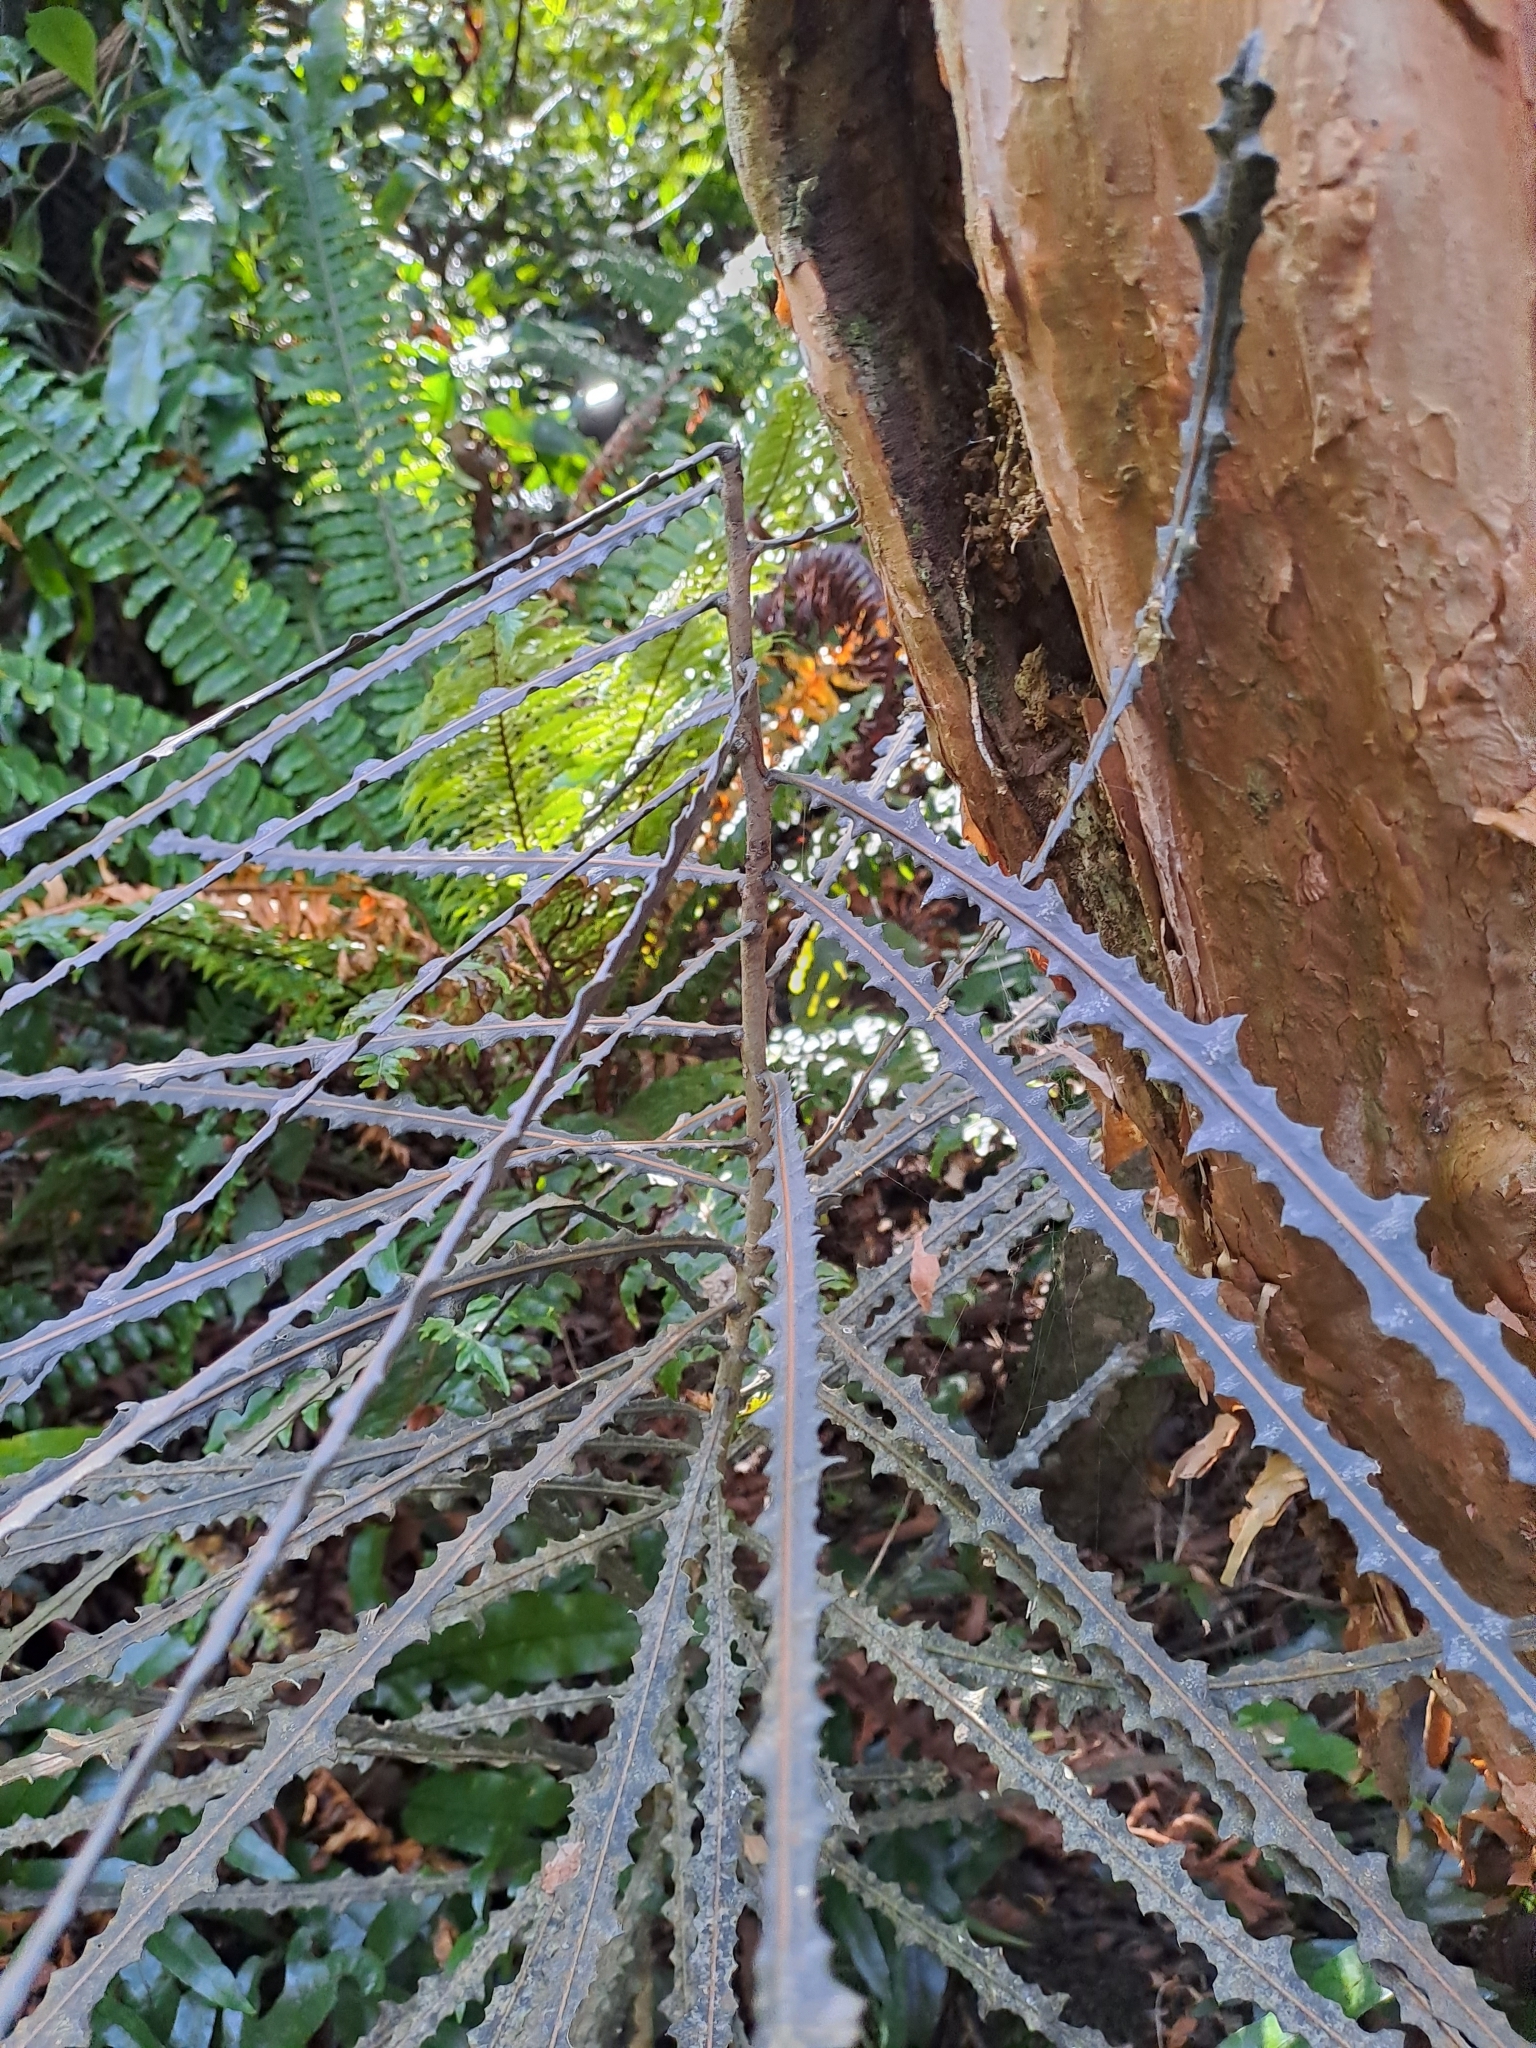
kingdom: Plantae
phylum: Tracheophyta
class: Magnoliopsida
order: Apiales
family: Araliaceae
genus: Pseudopanax
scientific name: Pseudopanax ferox
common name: Fierce lancewood
